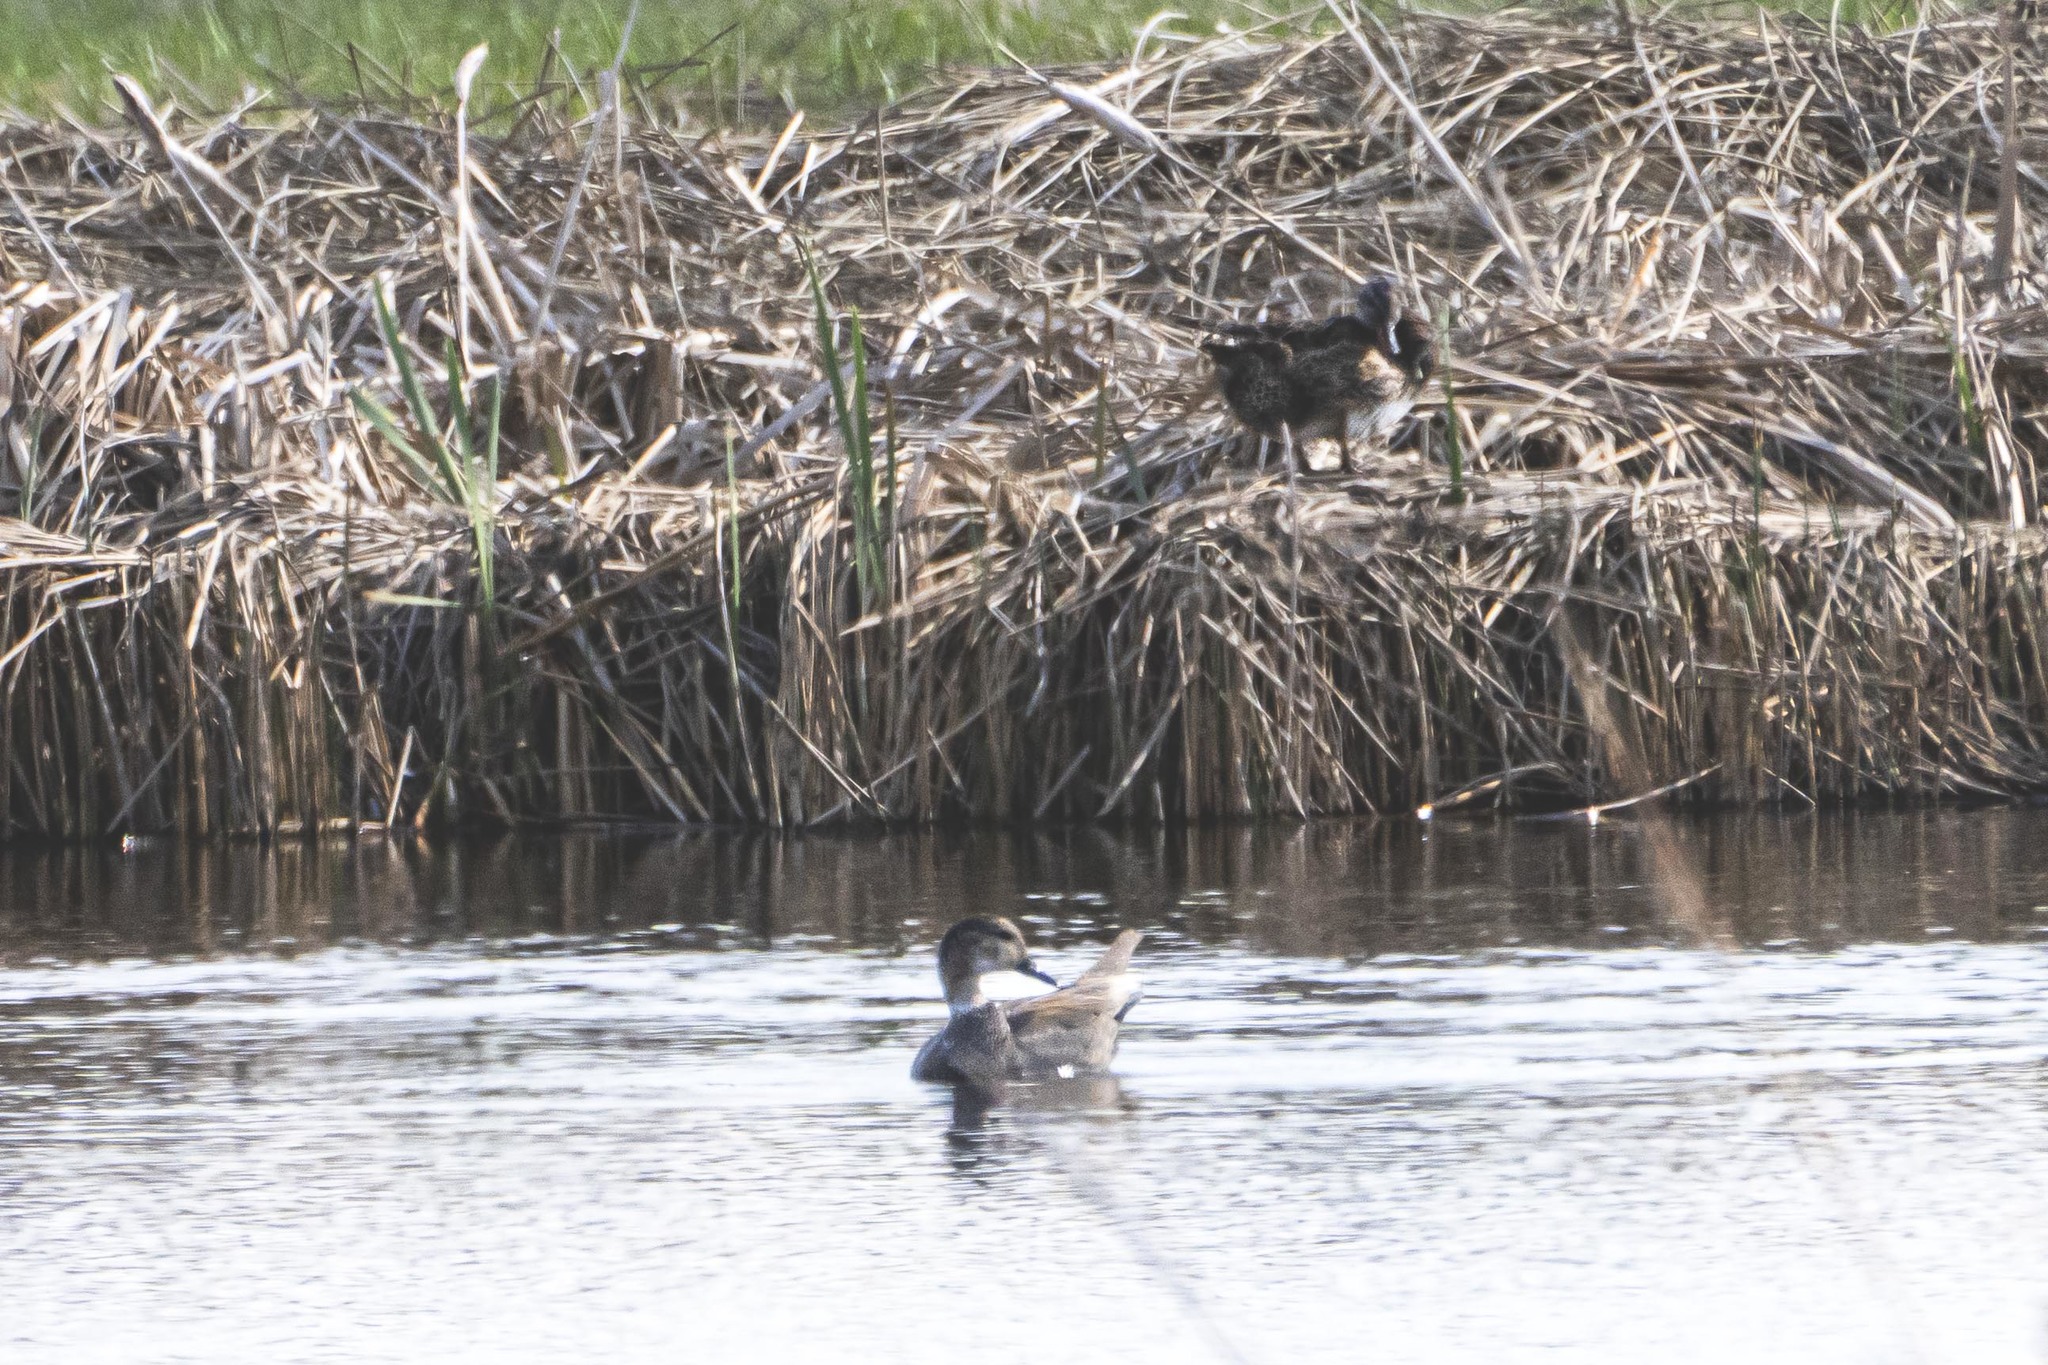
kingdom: Animalia
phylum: Chordata
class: Aves
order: Anseriformes
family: Anatidae
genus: Mareca
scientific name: Mareca strepera
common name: Gadwall
